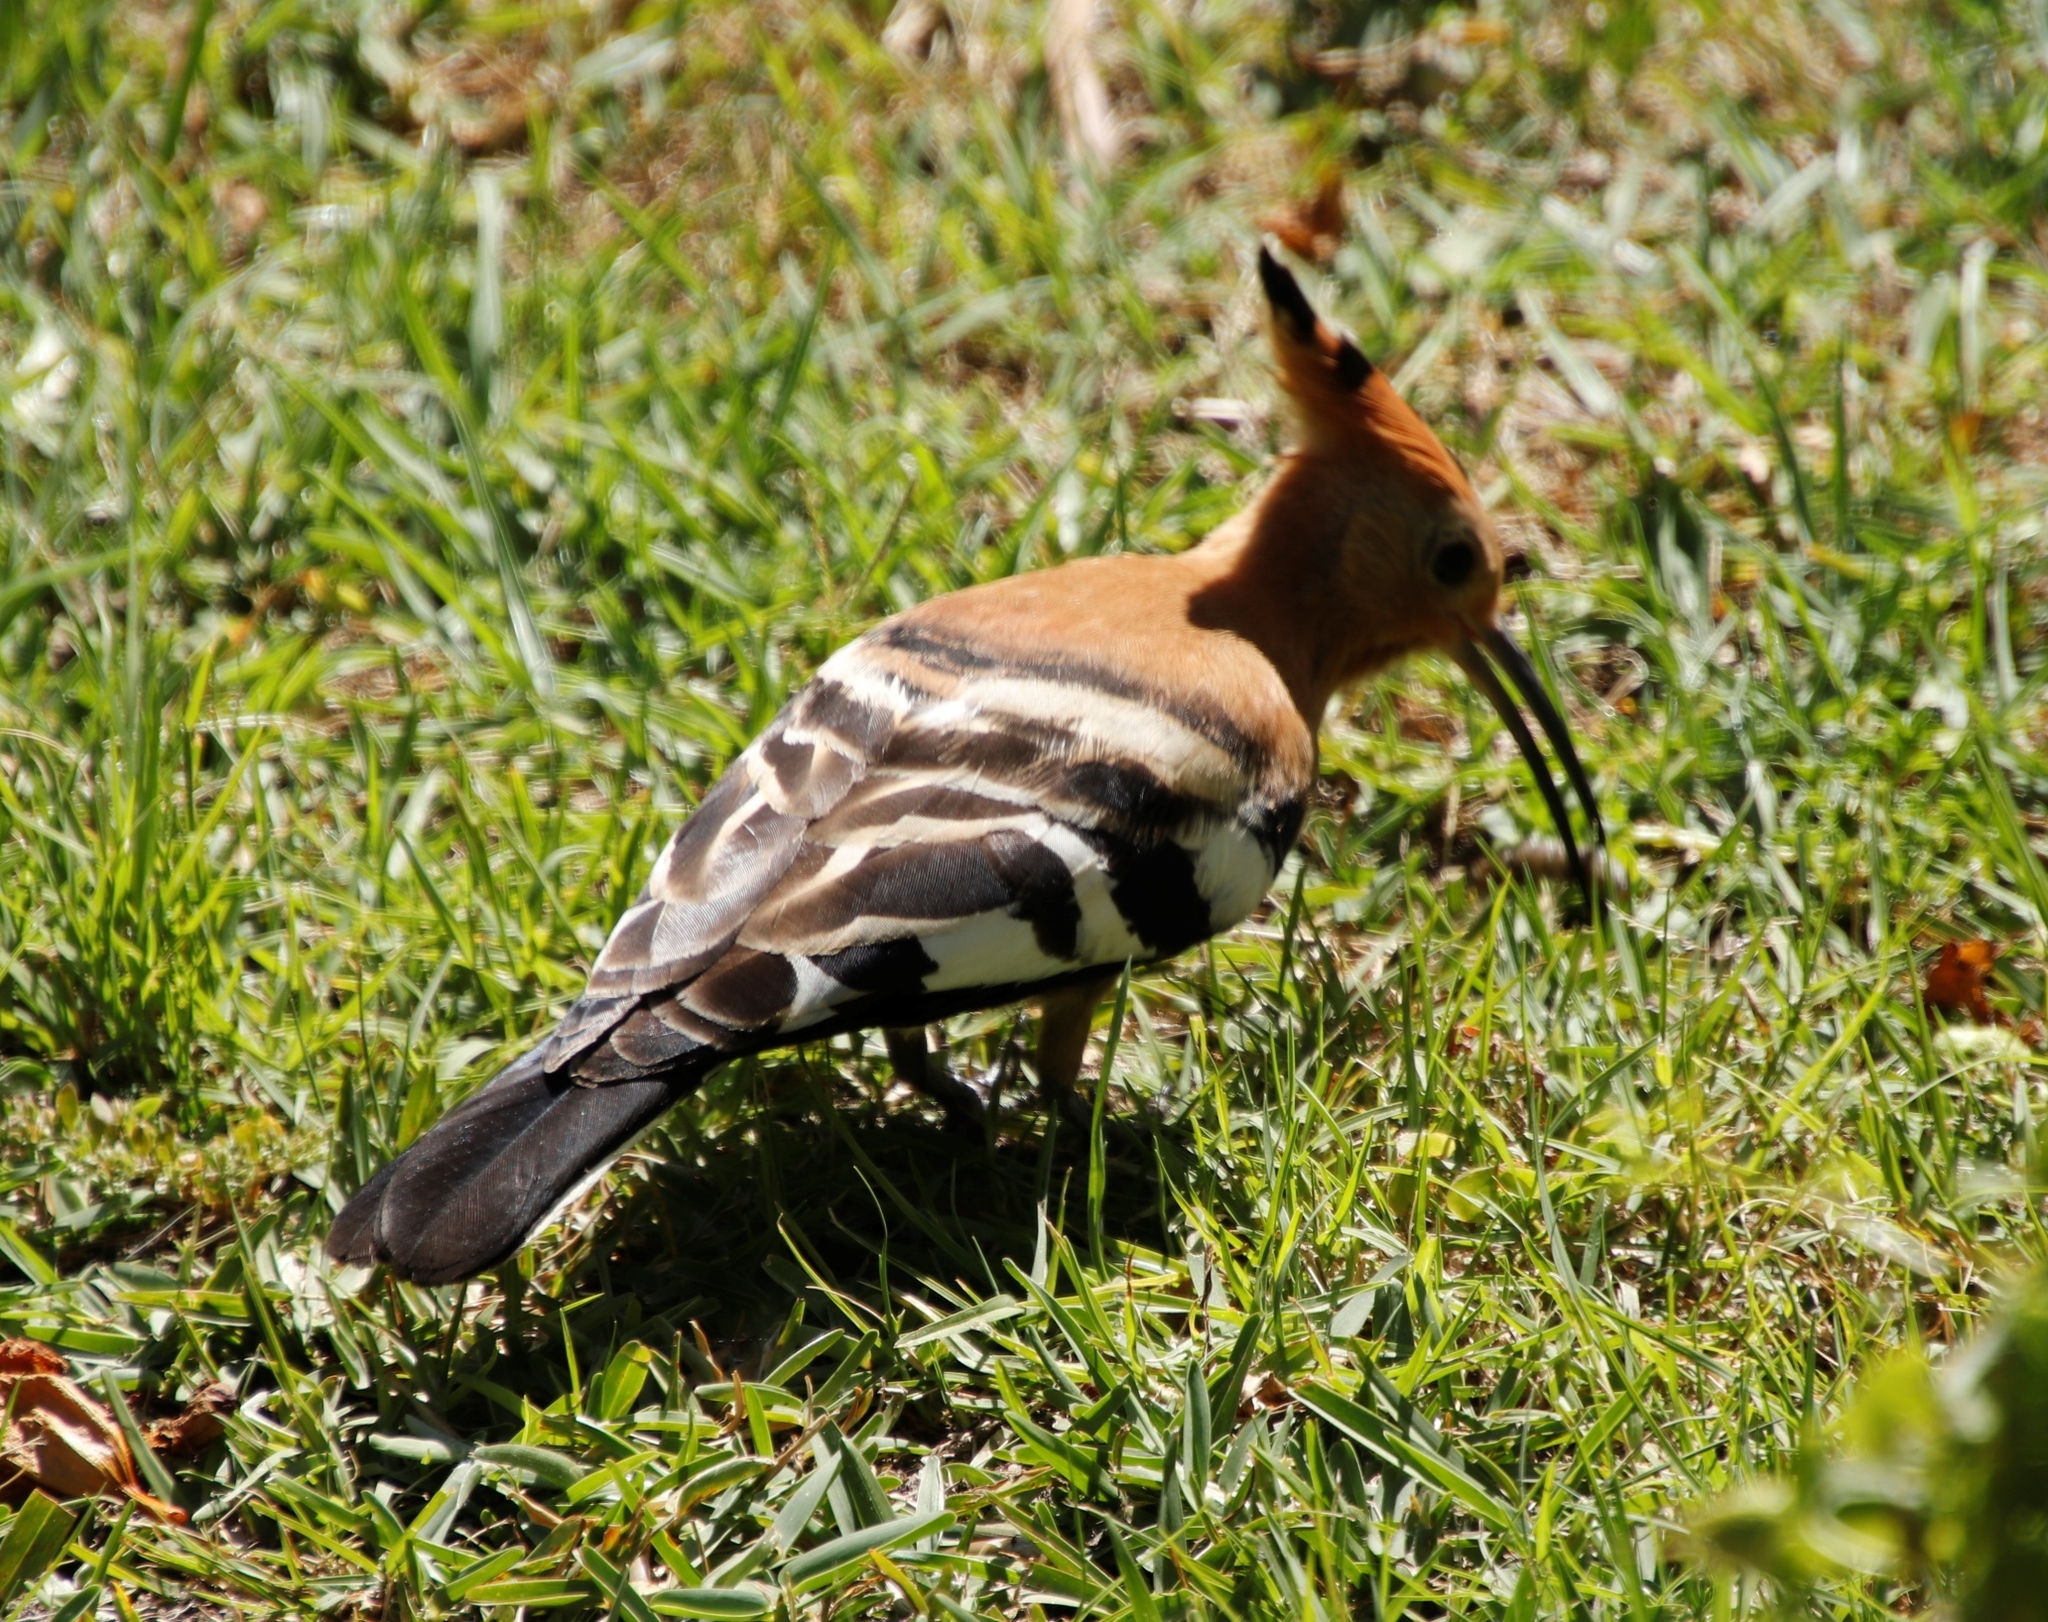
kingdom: Animalia
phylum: Chordata
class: Aves
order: Bucerotiformes
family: Upupidae
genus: Upupa
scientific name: Upupa africana
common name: African hoopoe
